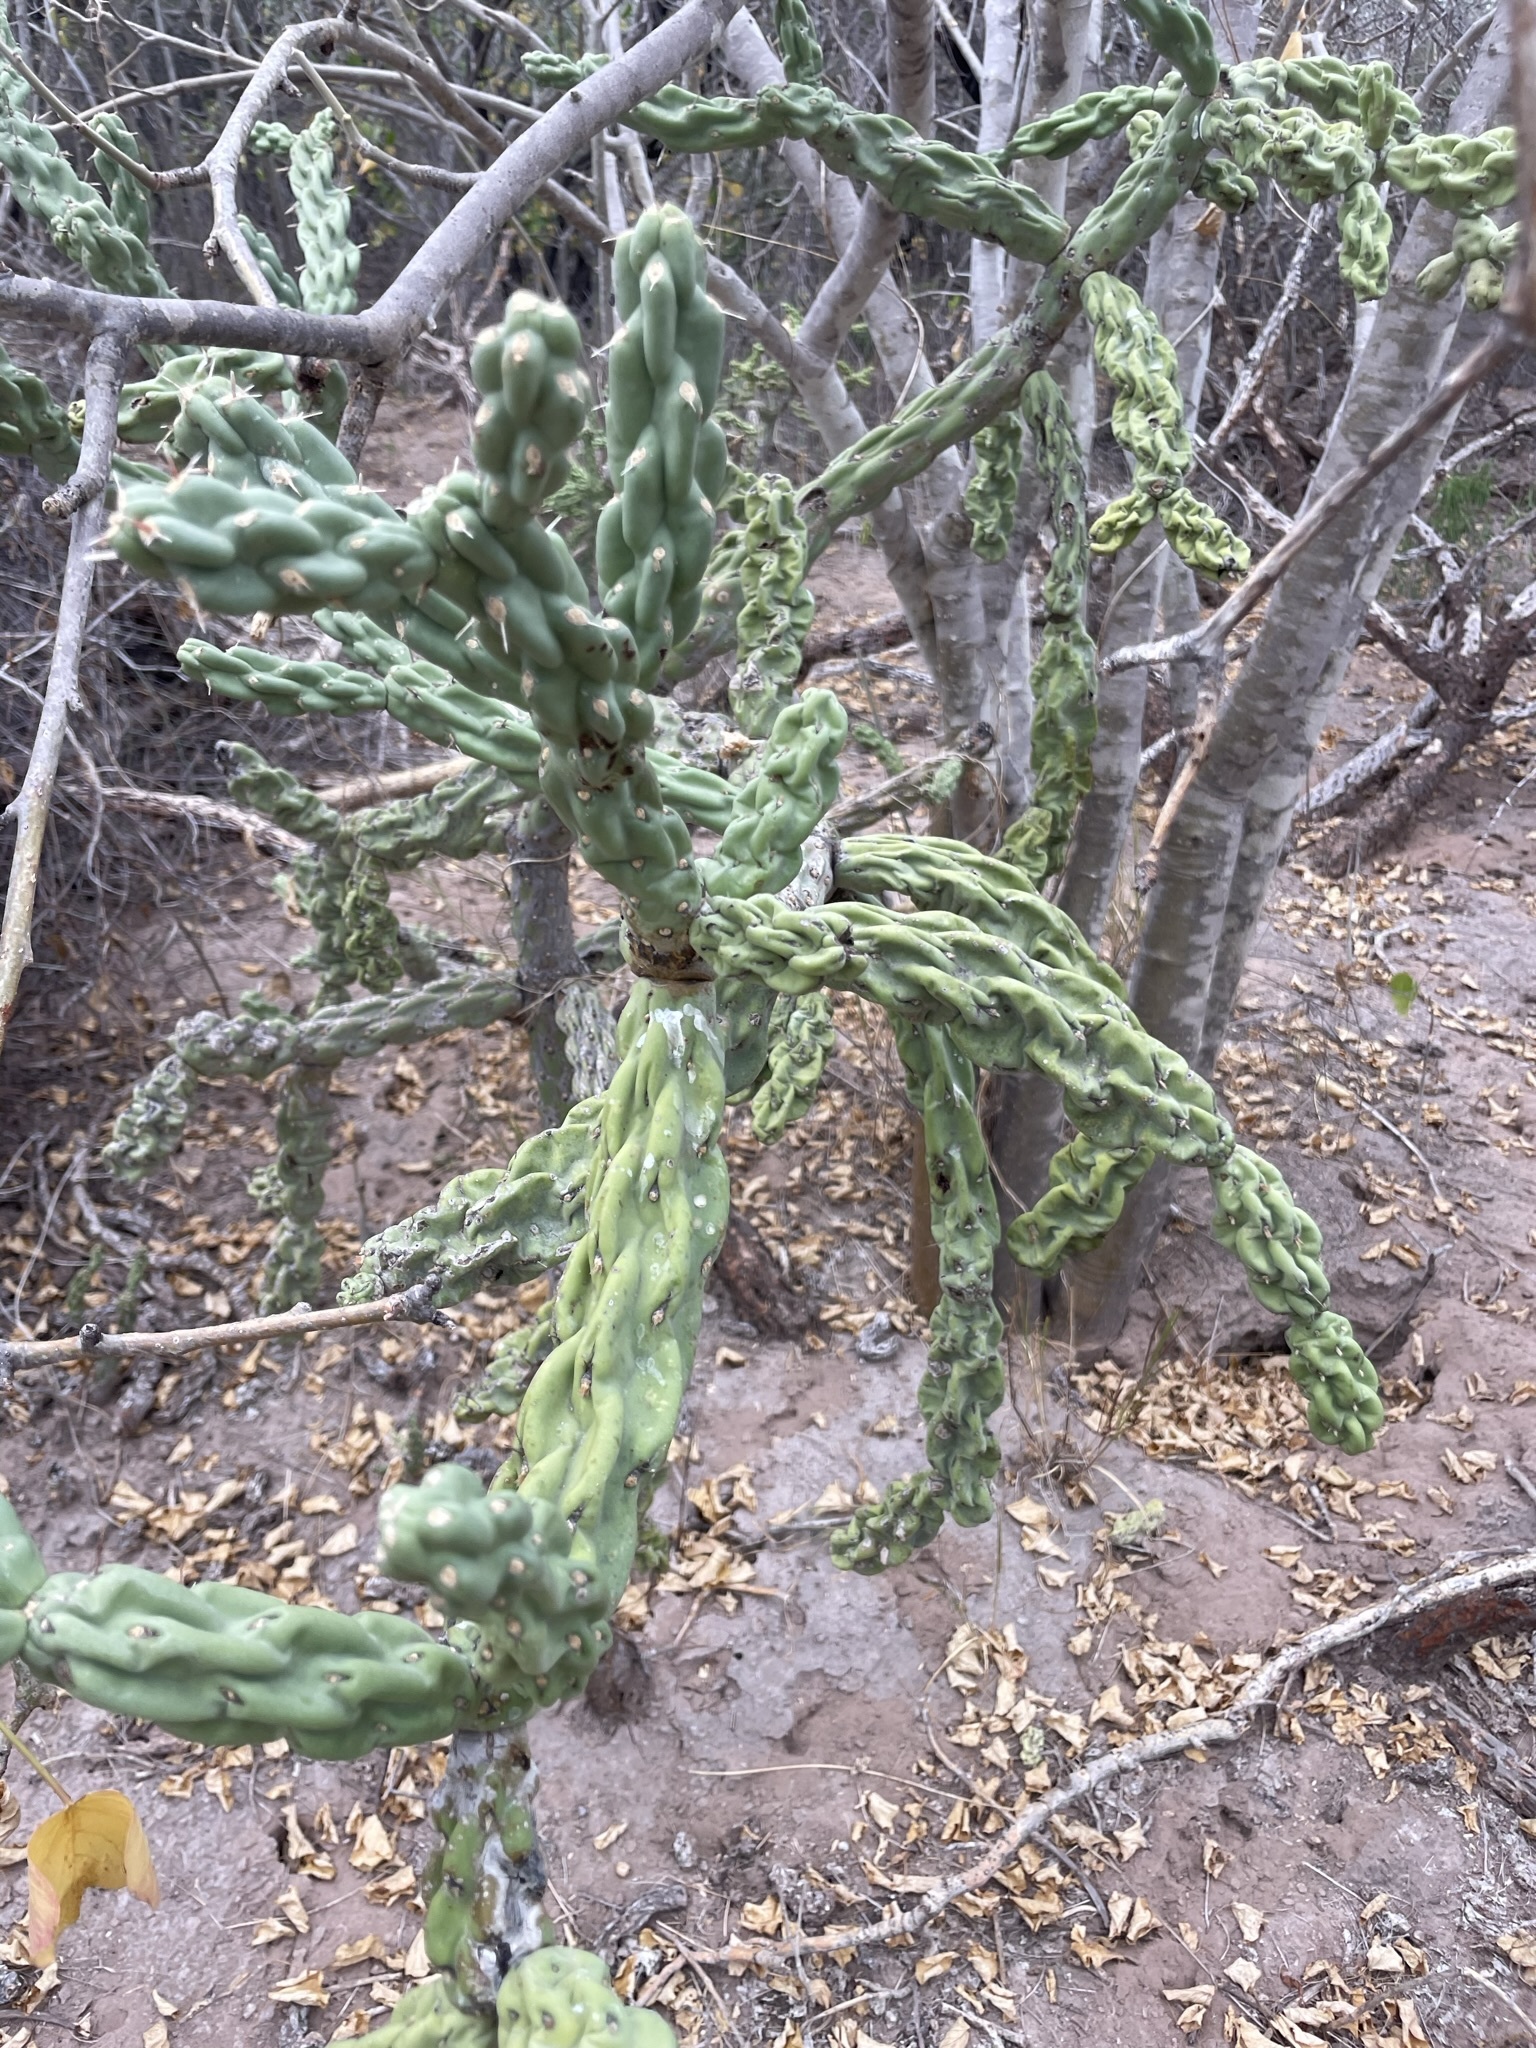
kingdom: Plantae
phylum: Tracheophyta
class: Magnoliopsida
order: Caryophyllales
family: Cactaceae
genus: Cylindropuntia
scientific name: Cylindropuntia cholla
